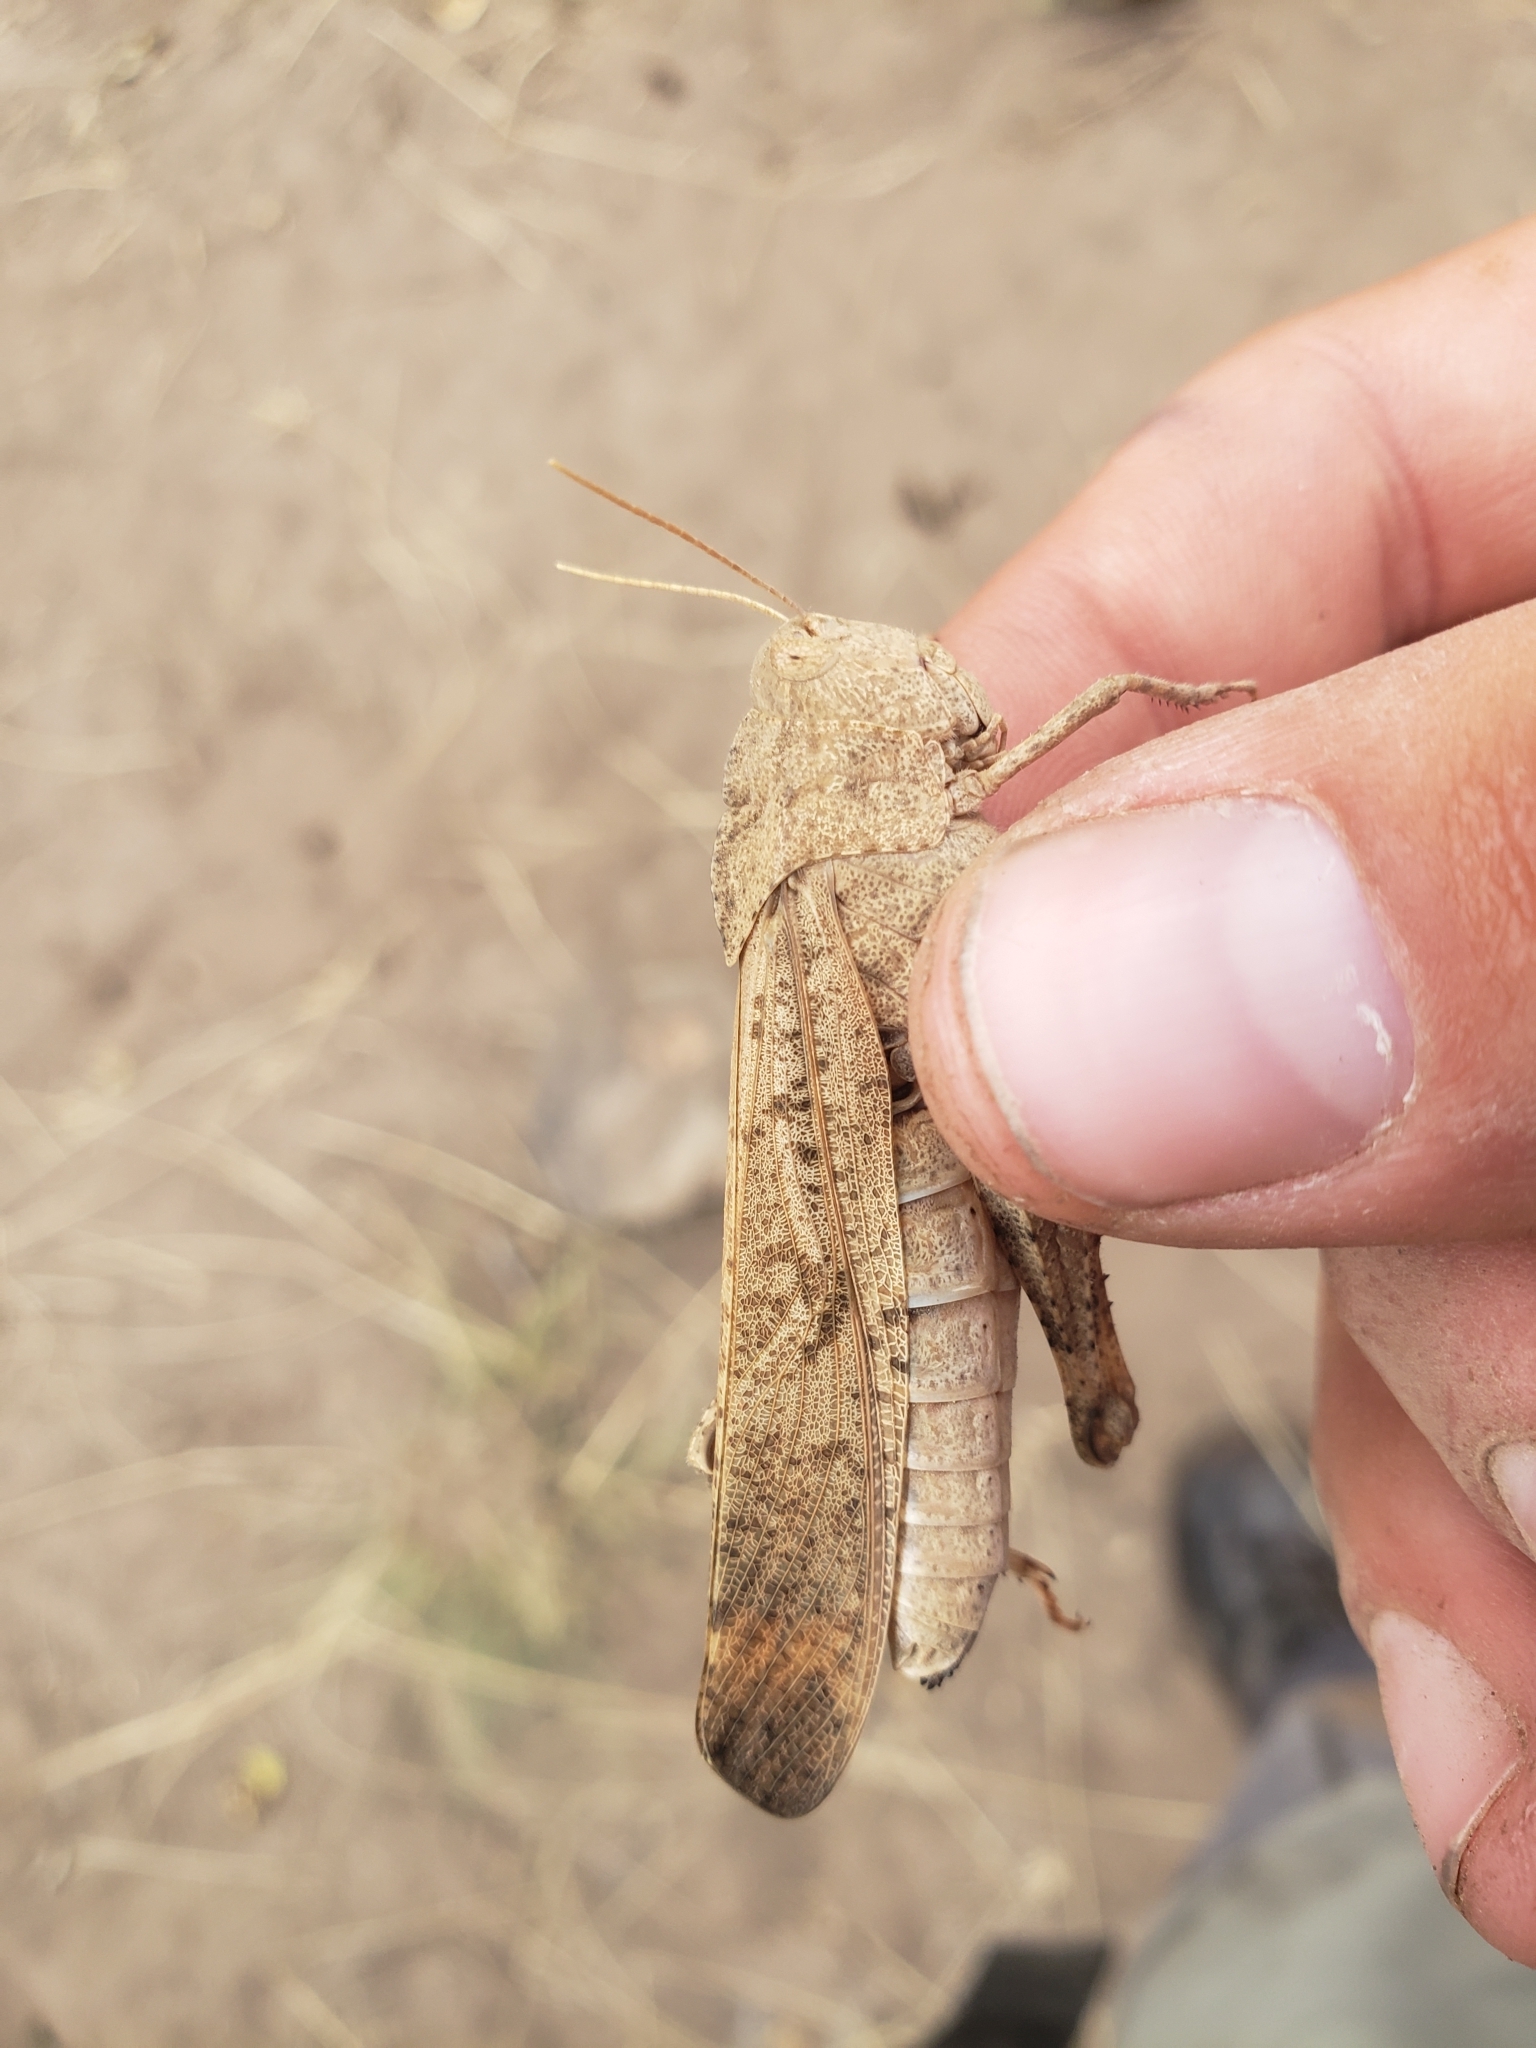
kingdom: Animalia
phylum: Arthropoda
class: Insecta
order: Orthoptera
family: Acrididae
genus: Dissosteira
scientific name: Dissosteira carolina
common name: Carolina grasshopper
